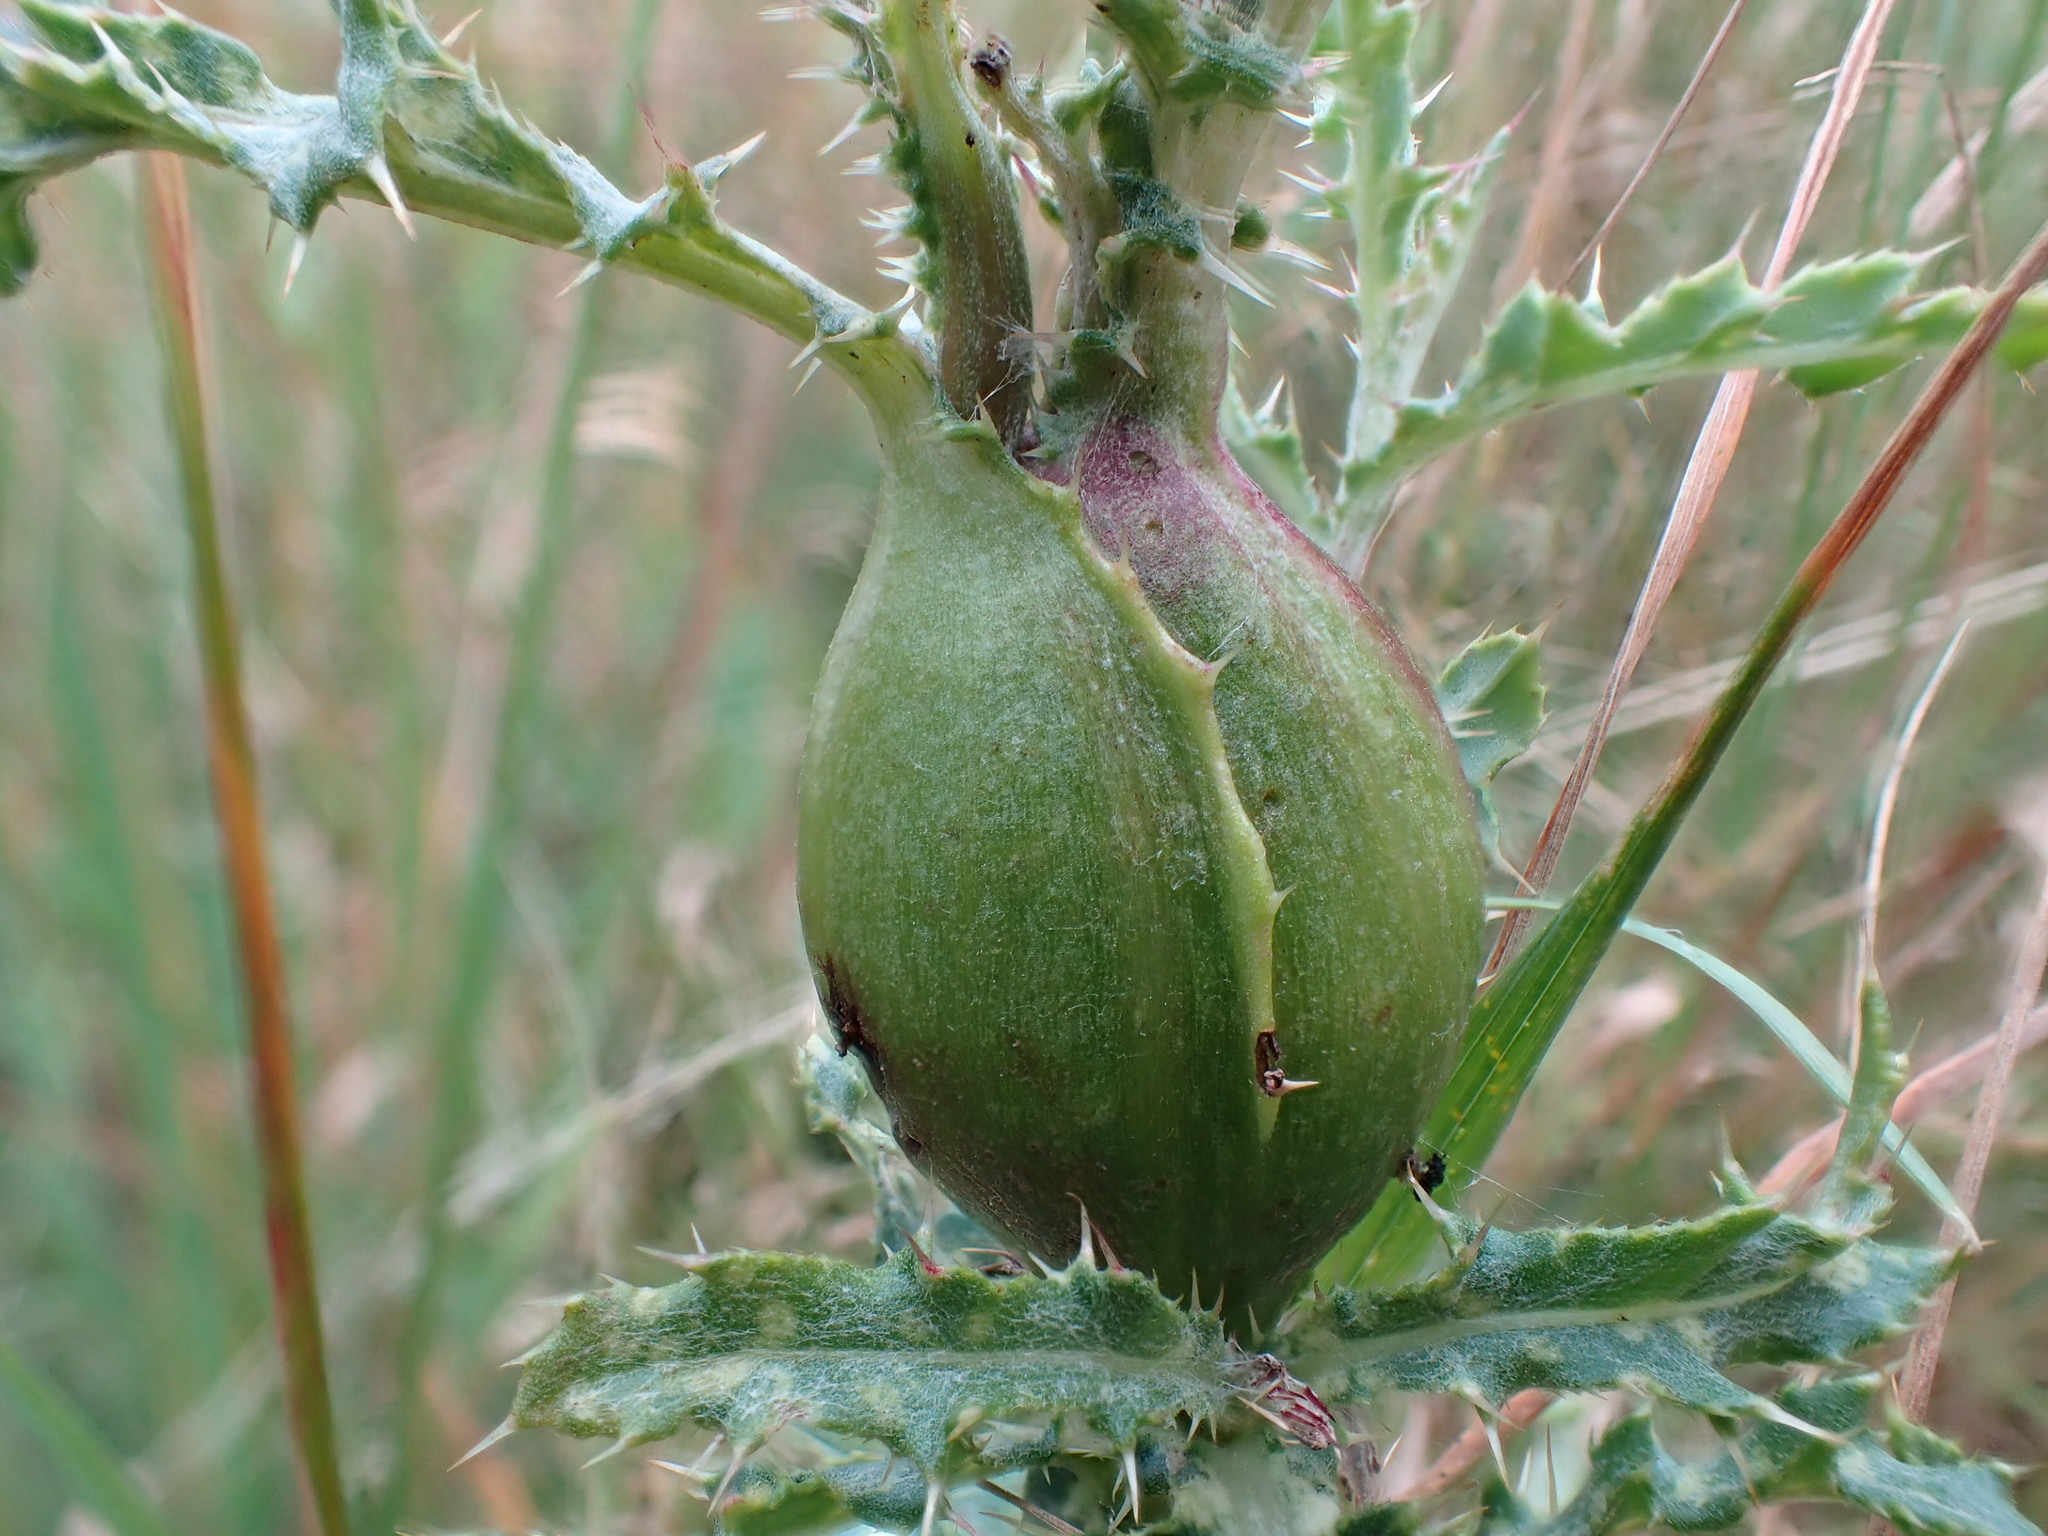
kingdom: Animalia
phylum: Arthropoda
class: Insecta
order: Diptera
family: Tephritidae
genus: Urophora
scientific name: Urophora cardui
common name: Fruit fly
